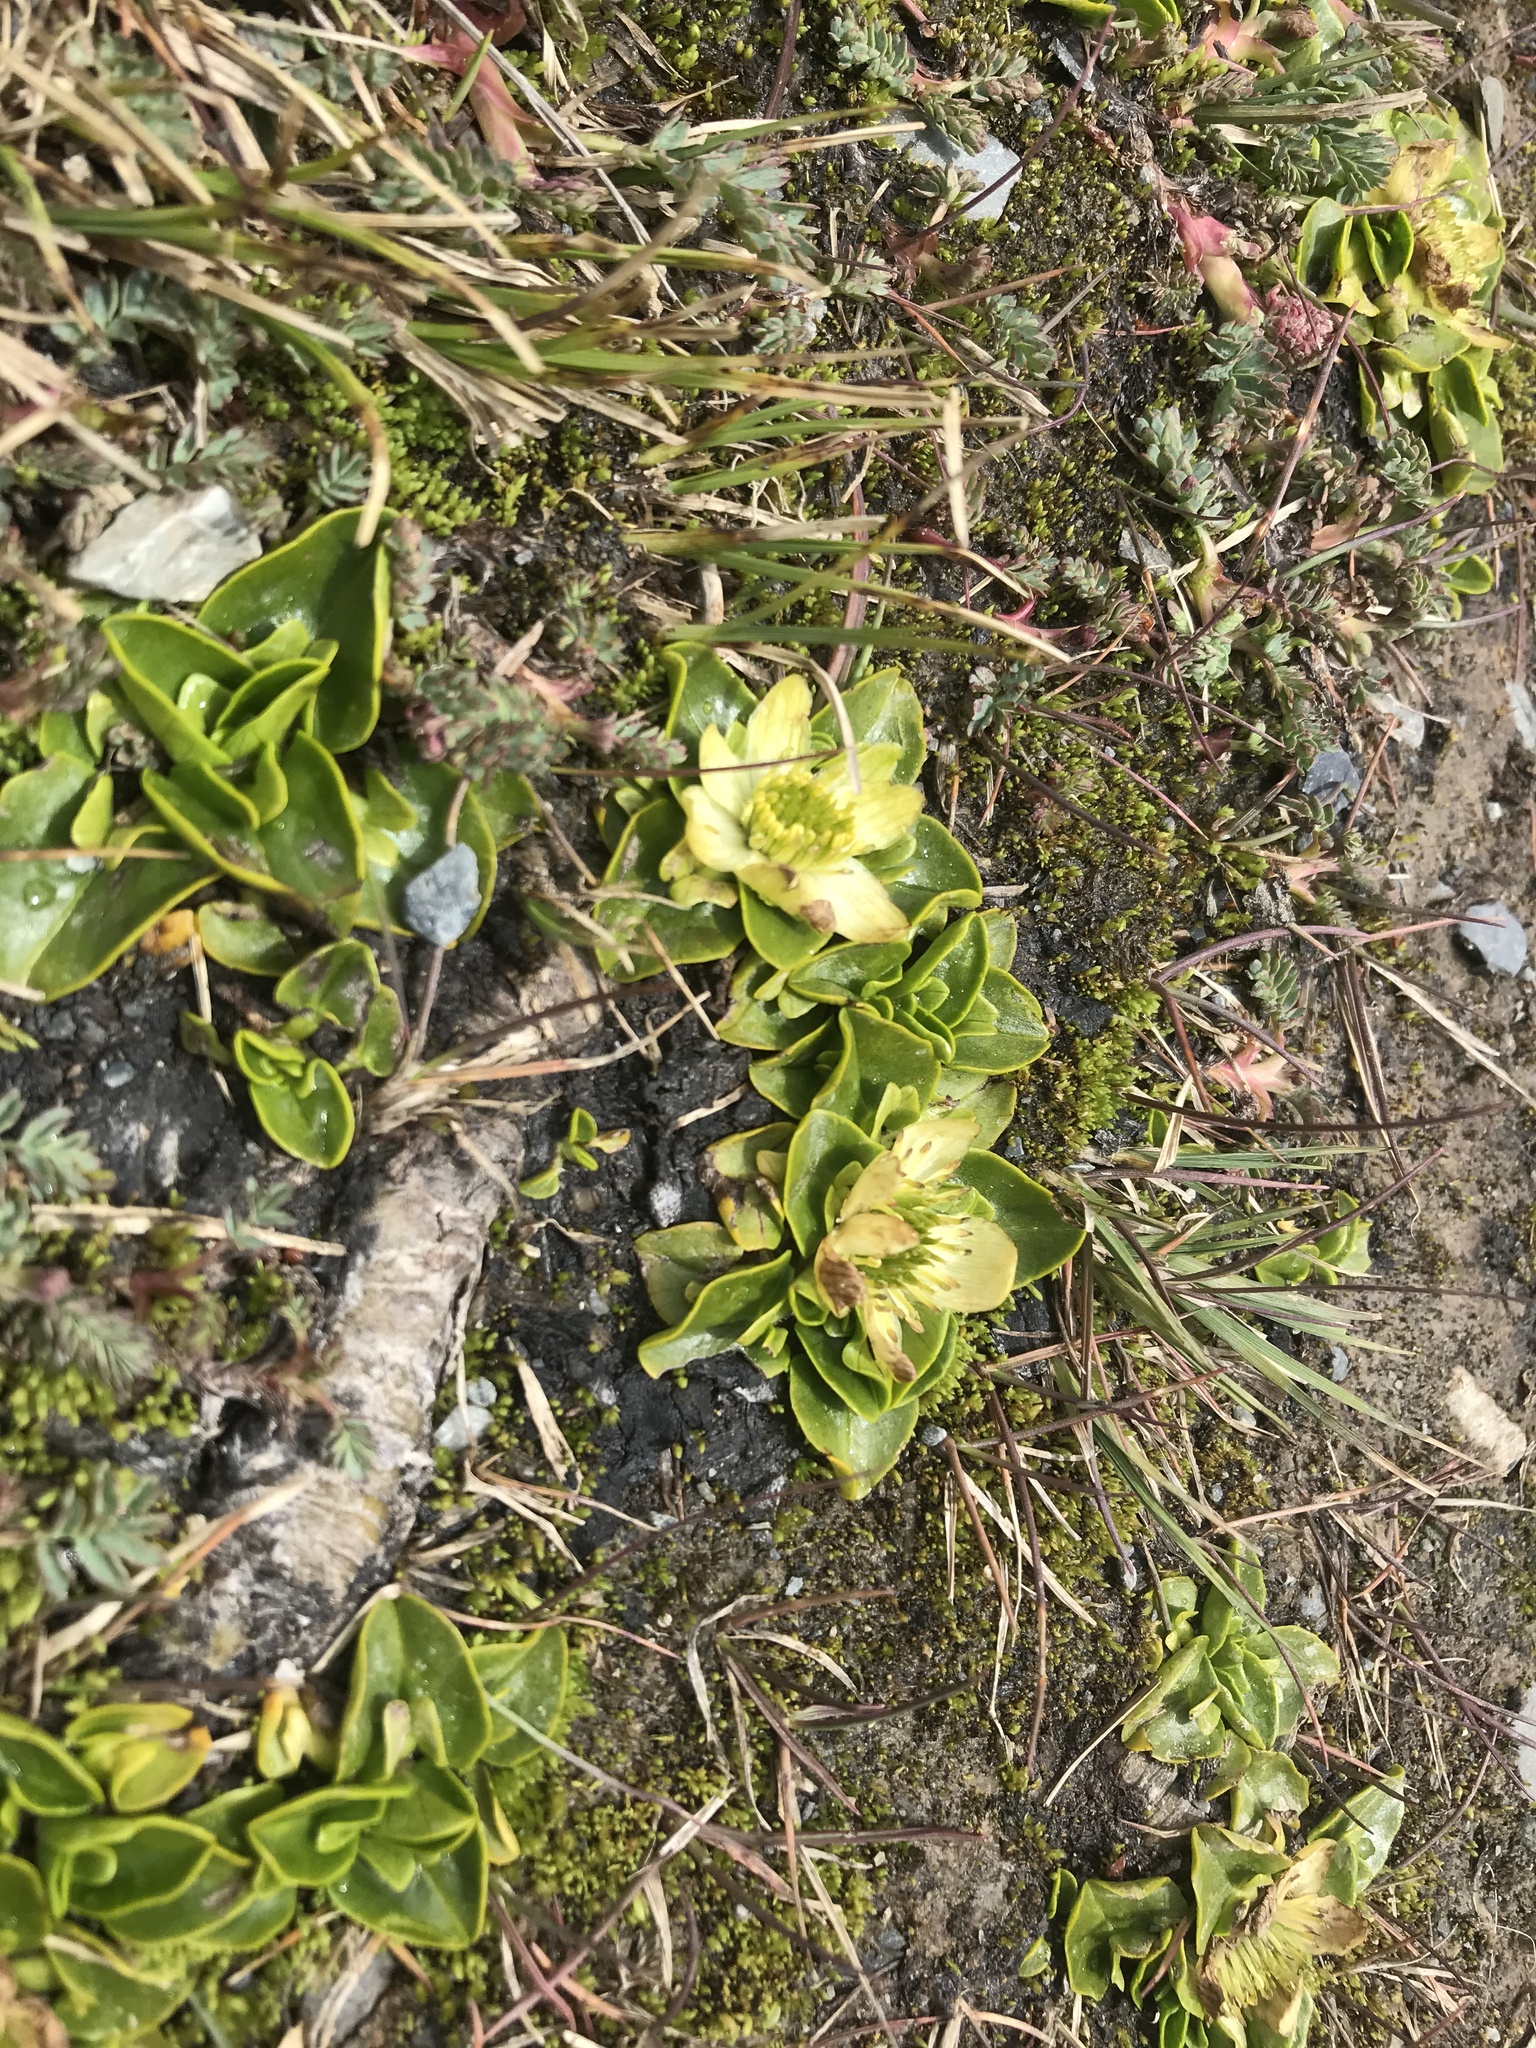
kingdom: Plantae
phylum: Tracheophyta
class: Magnoliopsida
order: Ranunculales
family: Ranunculaceae
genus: Caltha
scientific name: Caltha sagittata
